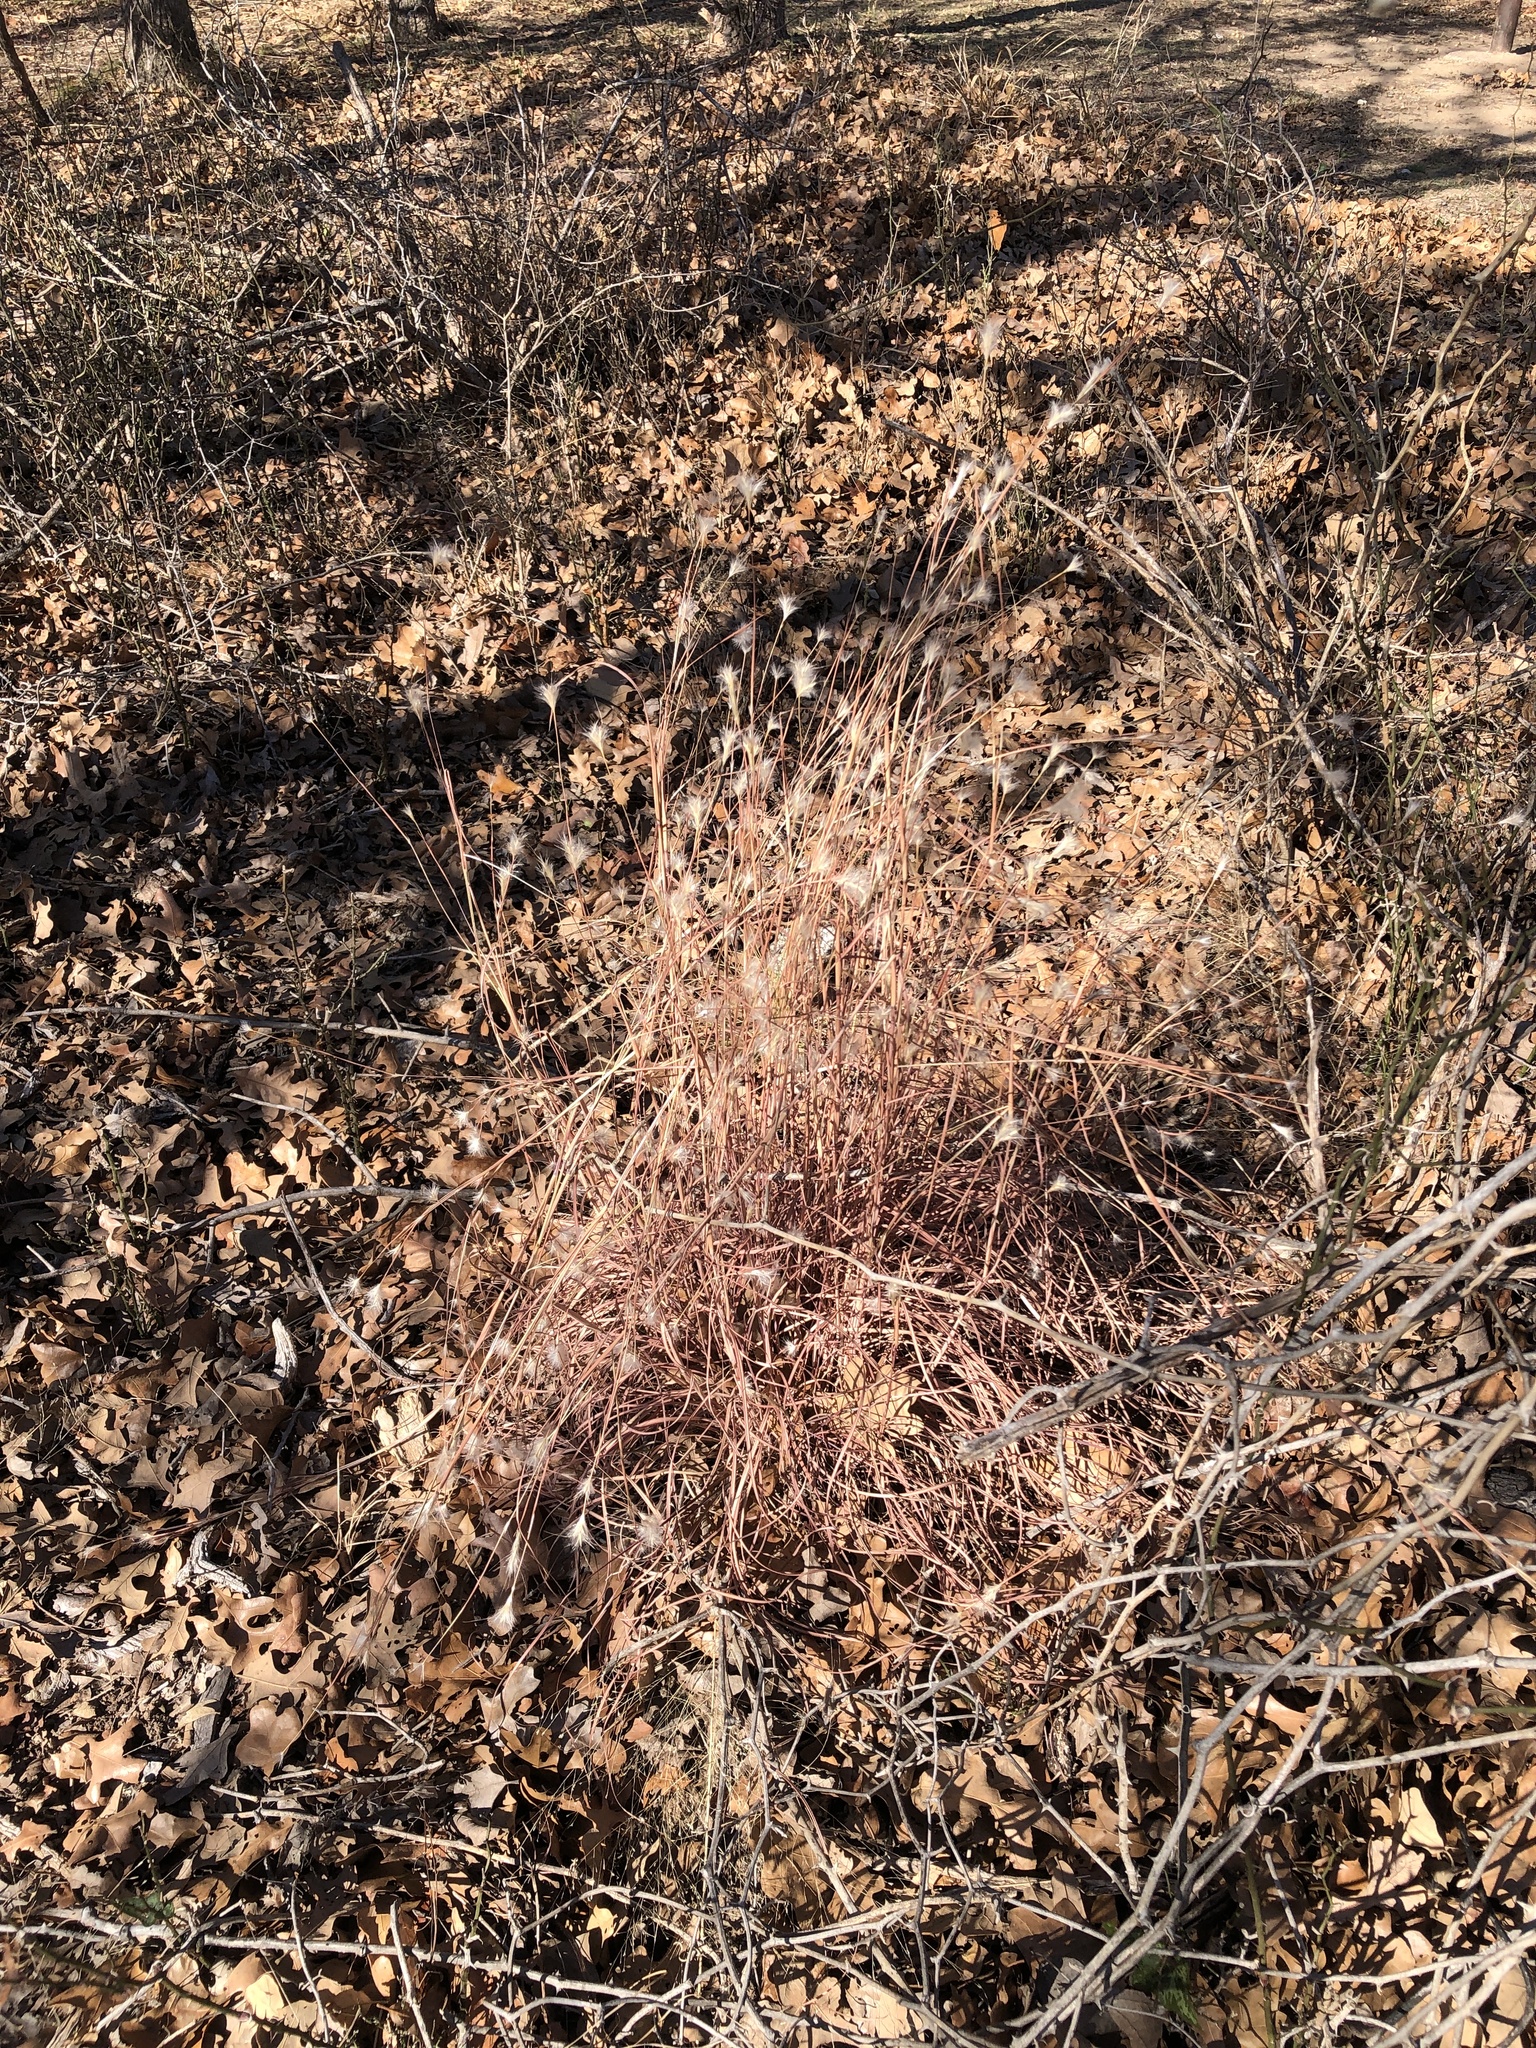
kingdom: Plantae
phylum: Tracheophyta
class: Liliopsida
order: Poales
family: Poaceae
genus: Andropogon
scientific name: Andropogon ternarius
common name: Split bluestem
